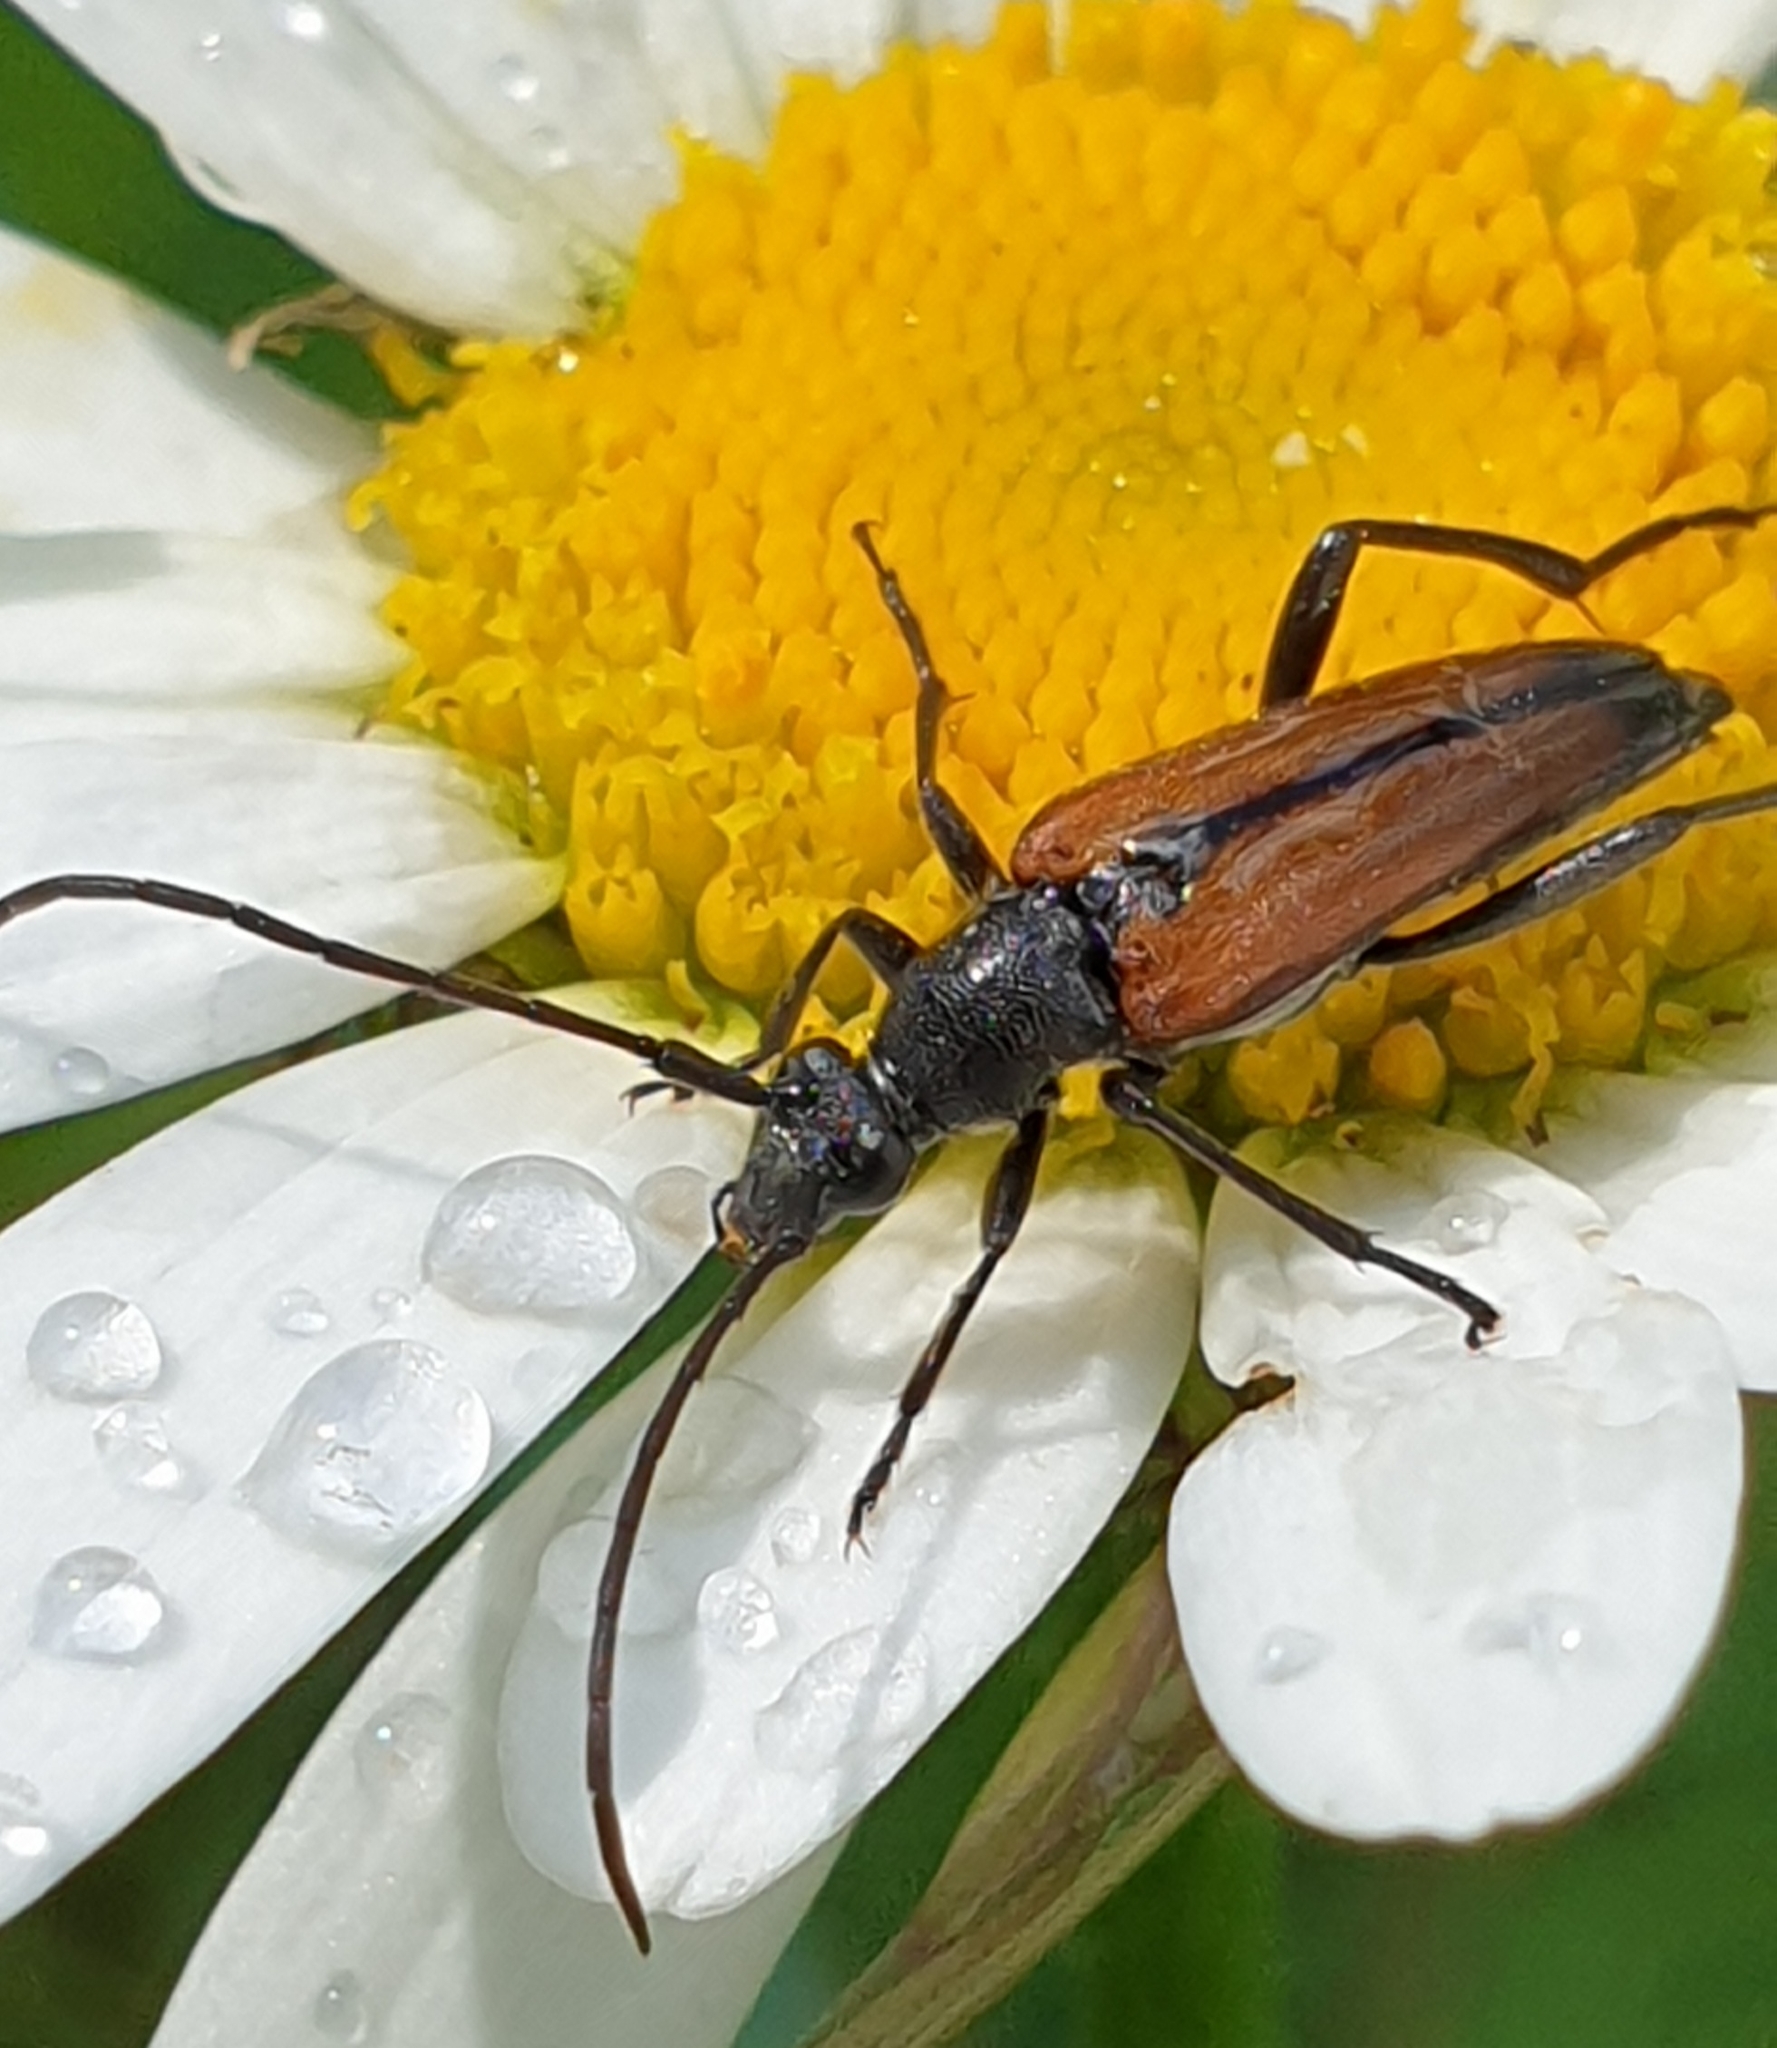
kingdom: Animalia
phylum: Arthropoda
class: Insecta
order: Coleoptera
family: Cerambycidae
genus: Stenurella
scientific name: Stenurella melanura
